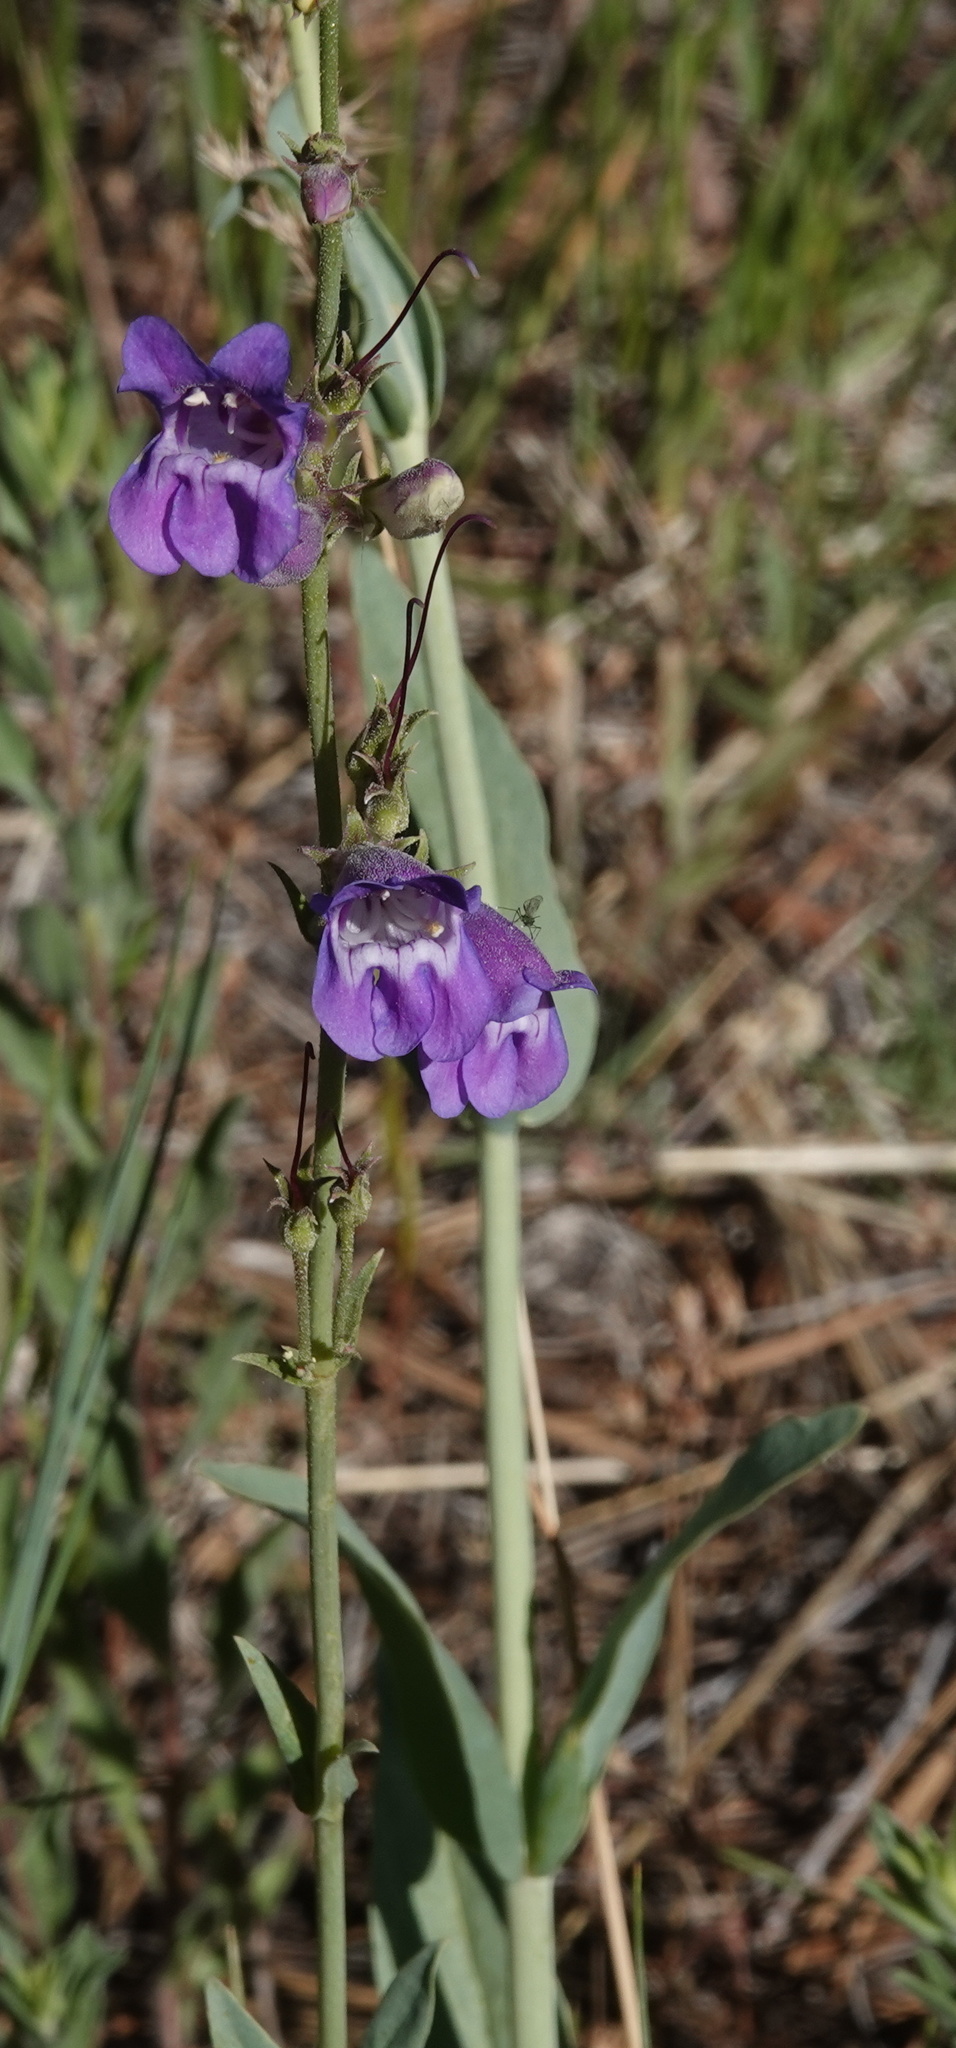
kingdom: Plantae
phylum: Tracheophyta
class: Magnoliopsida
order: Lamiales
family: Plantaginaceae
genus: Penstemon
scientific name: Penstemon leiophyllus
